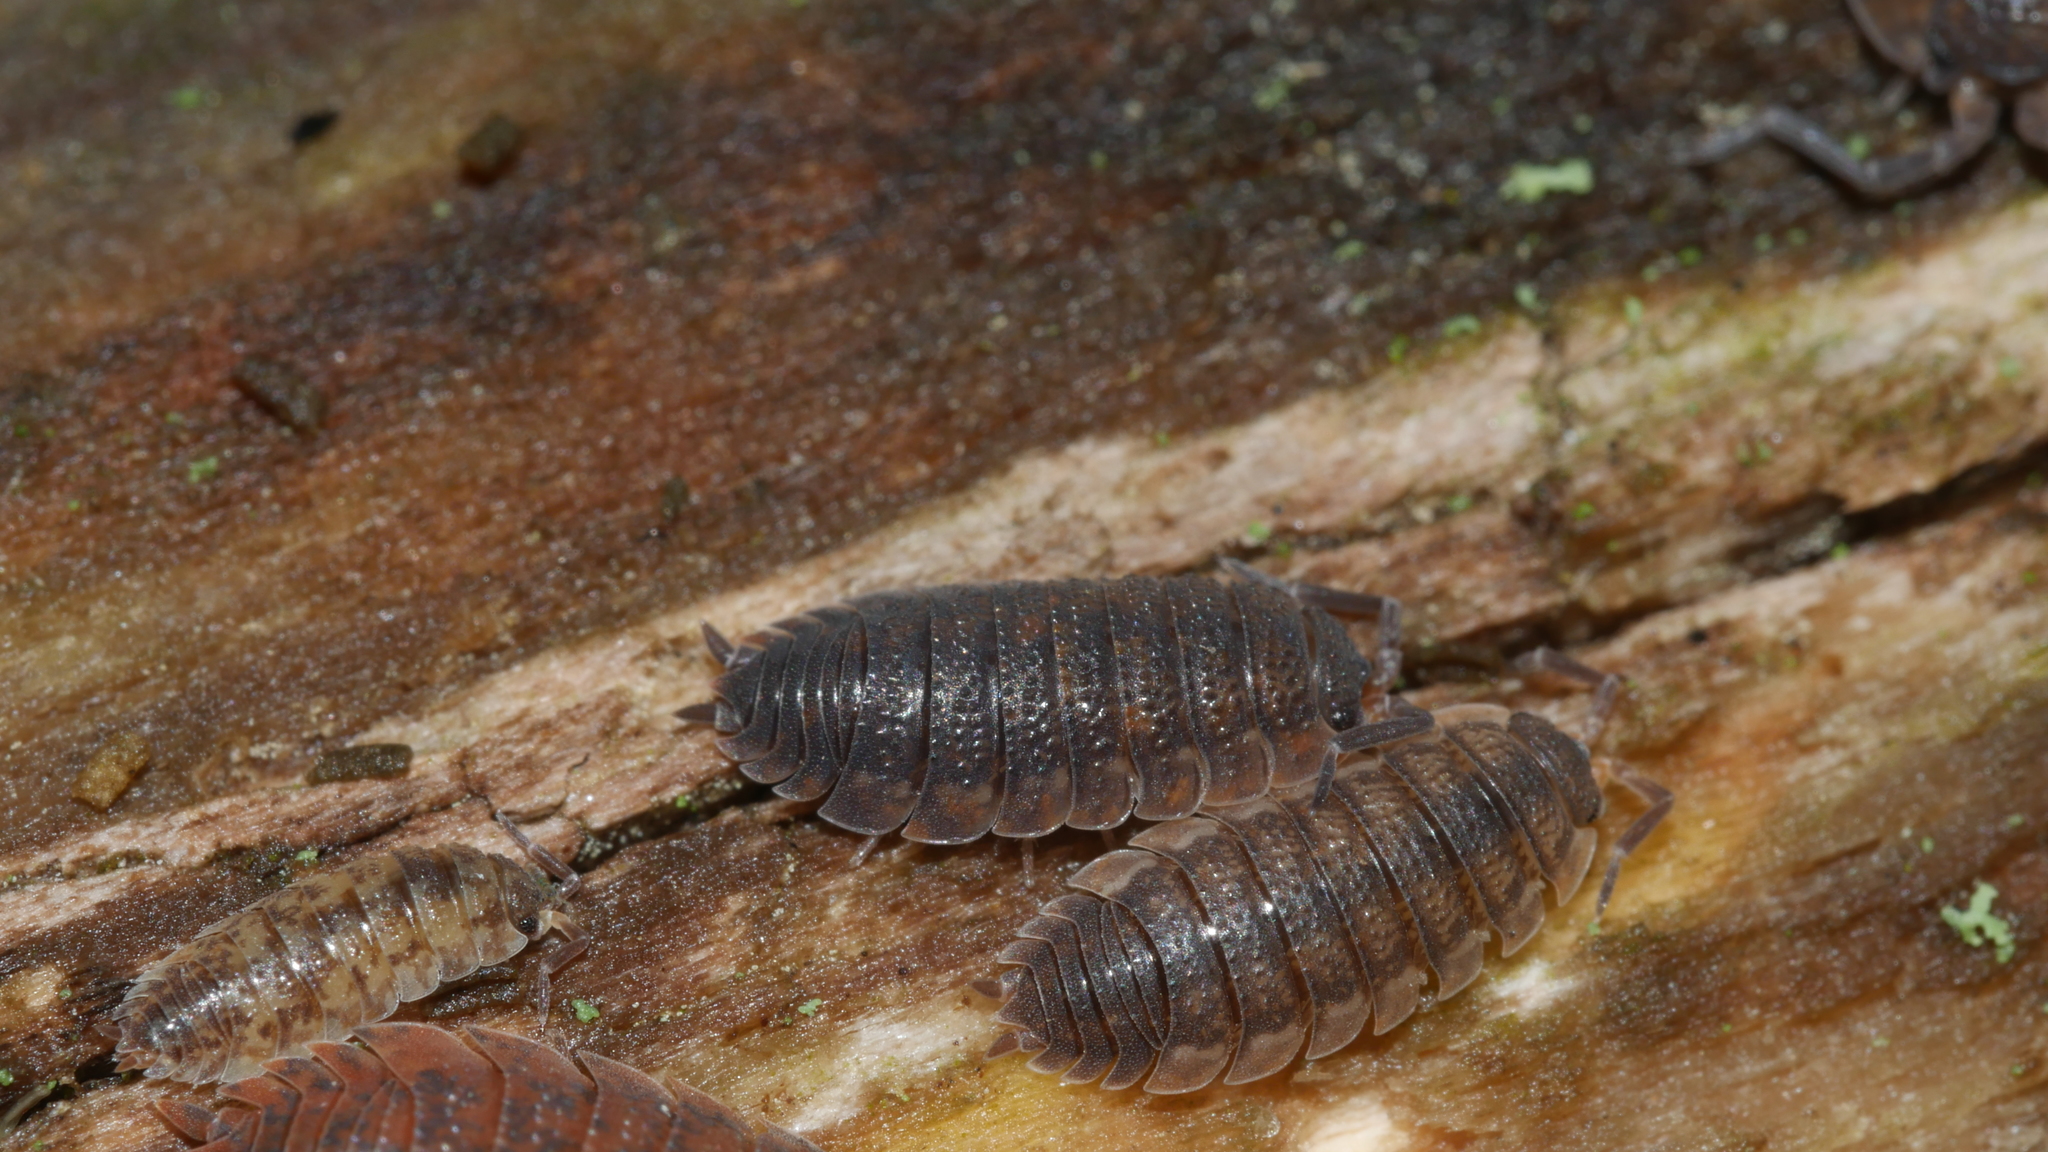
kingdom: Animalia
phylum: Arthropoda
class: Malacostraca
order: Isopoda
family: Porcellionidae
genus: Porcellio
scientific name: Porcellio scaber
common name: Common rough woodlouse
